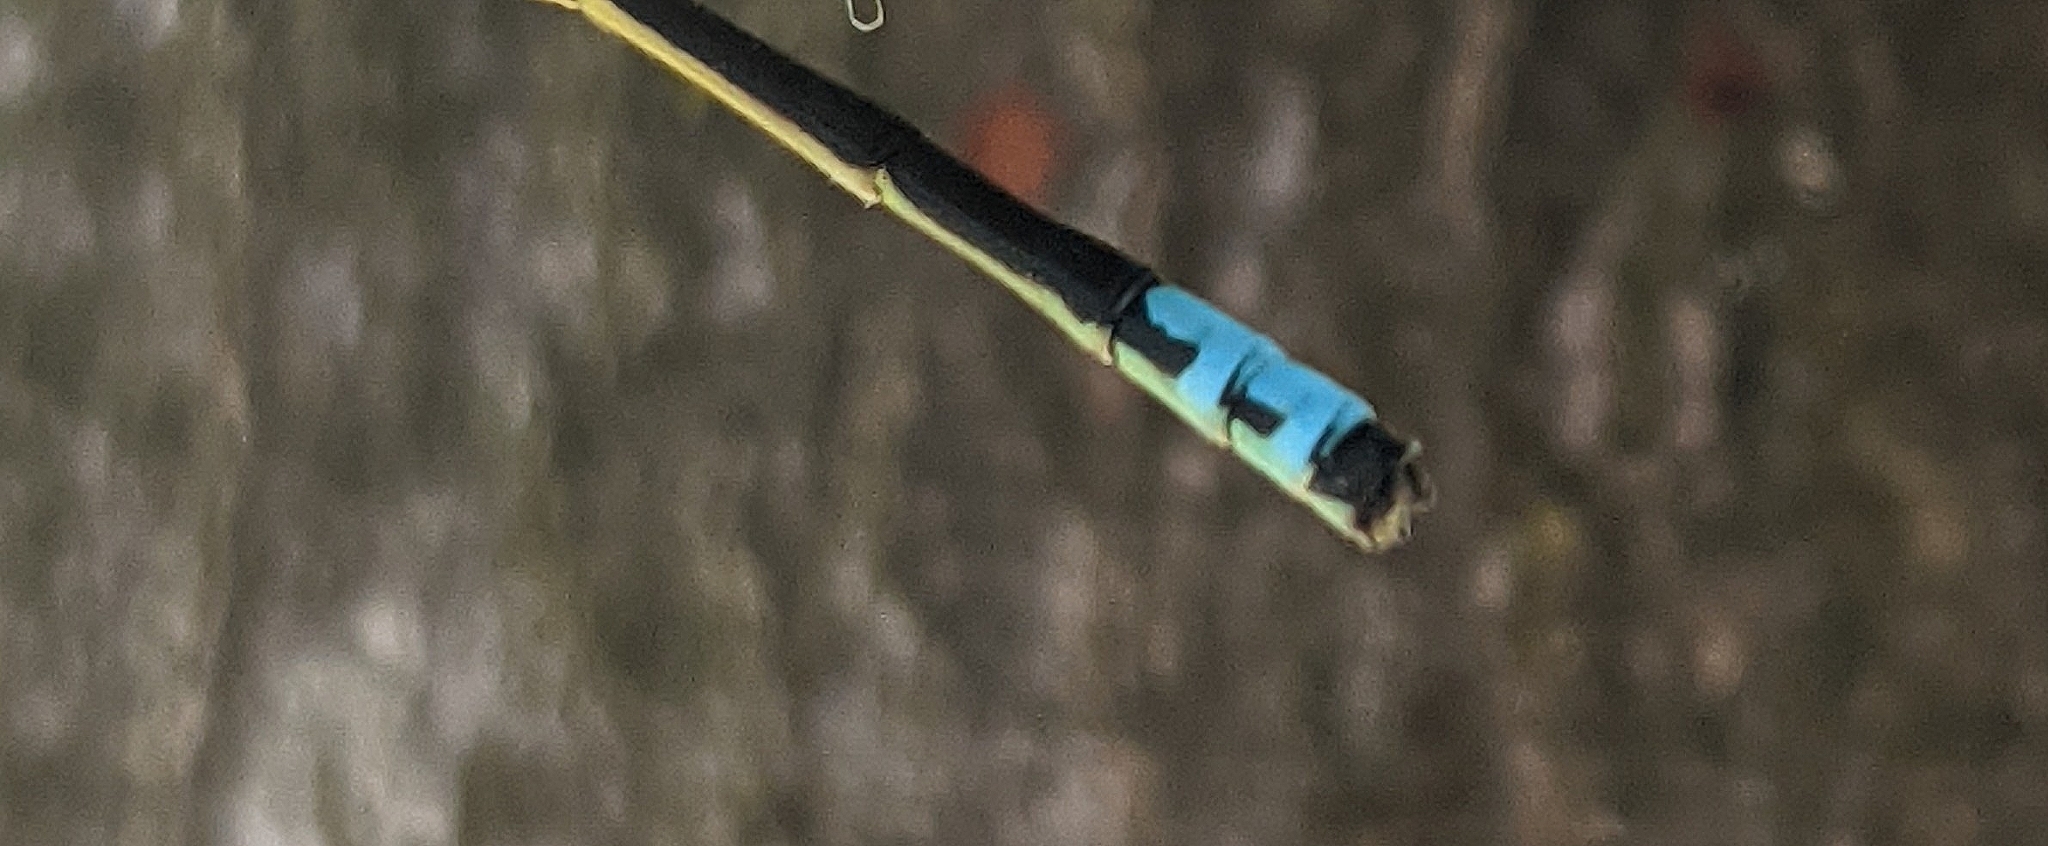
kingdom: Animalia
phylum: Arthropoda
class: Insecta
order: Odonata
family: Coenagrionidae
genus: Ischnura
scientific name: Ischnura verticalis
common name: Eastern forktail
